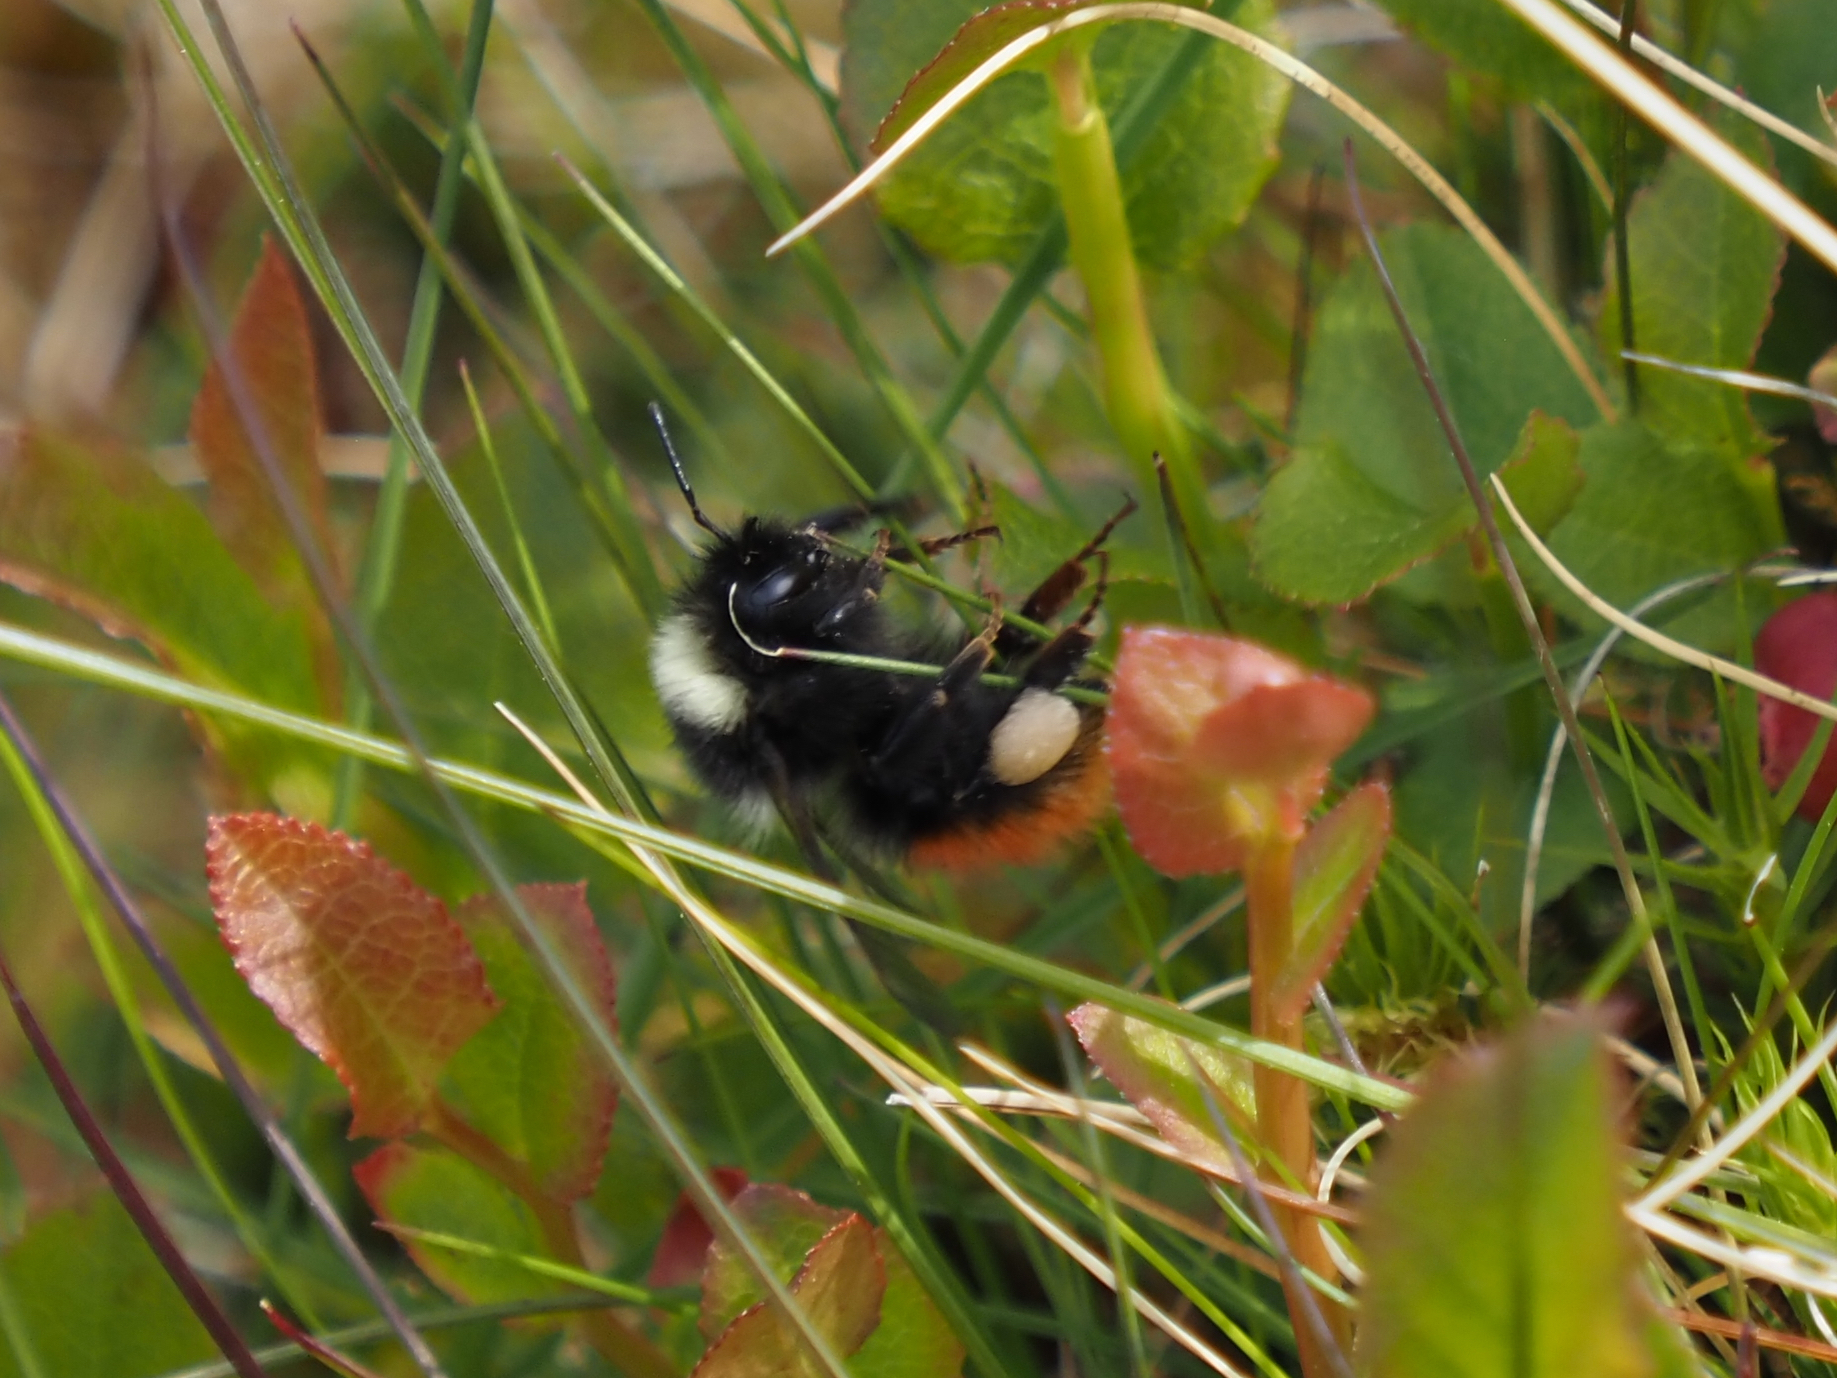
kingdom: Animalia
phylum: Arthropoda
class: Insecta
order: Hymenoptera
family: Apidae
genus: Bombus
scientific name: Bombus monticola
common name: Bilberry humble-bee
